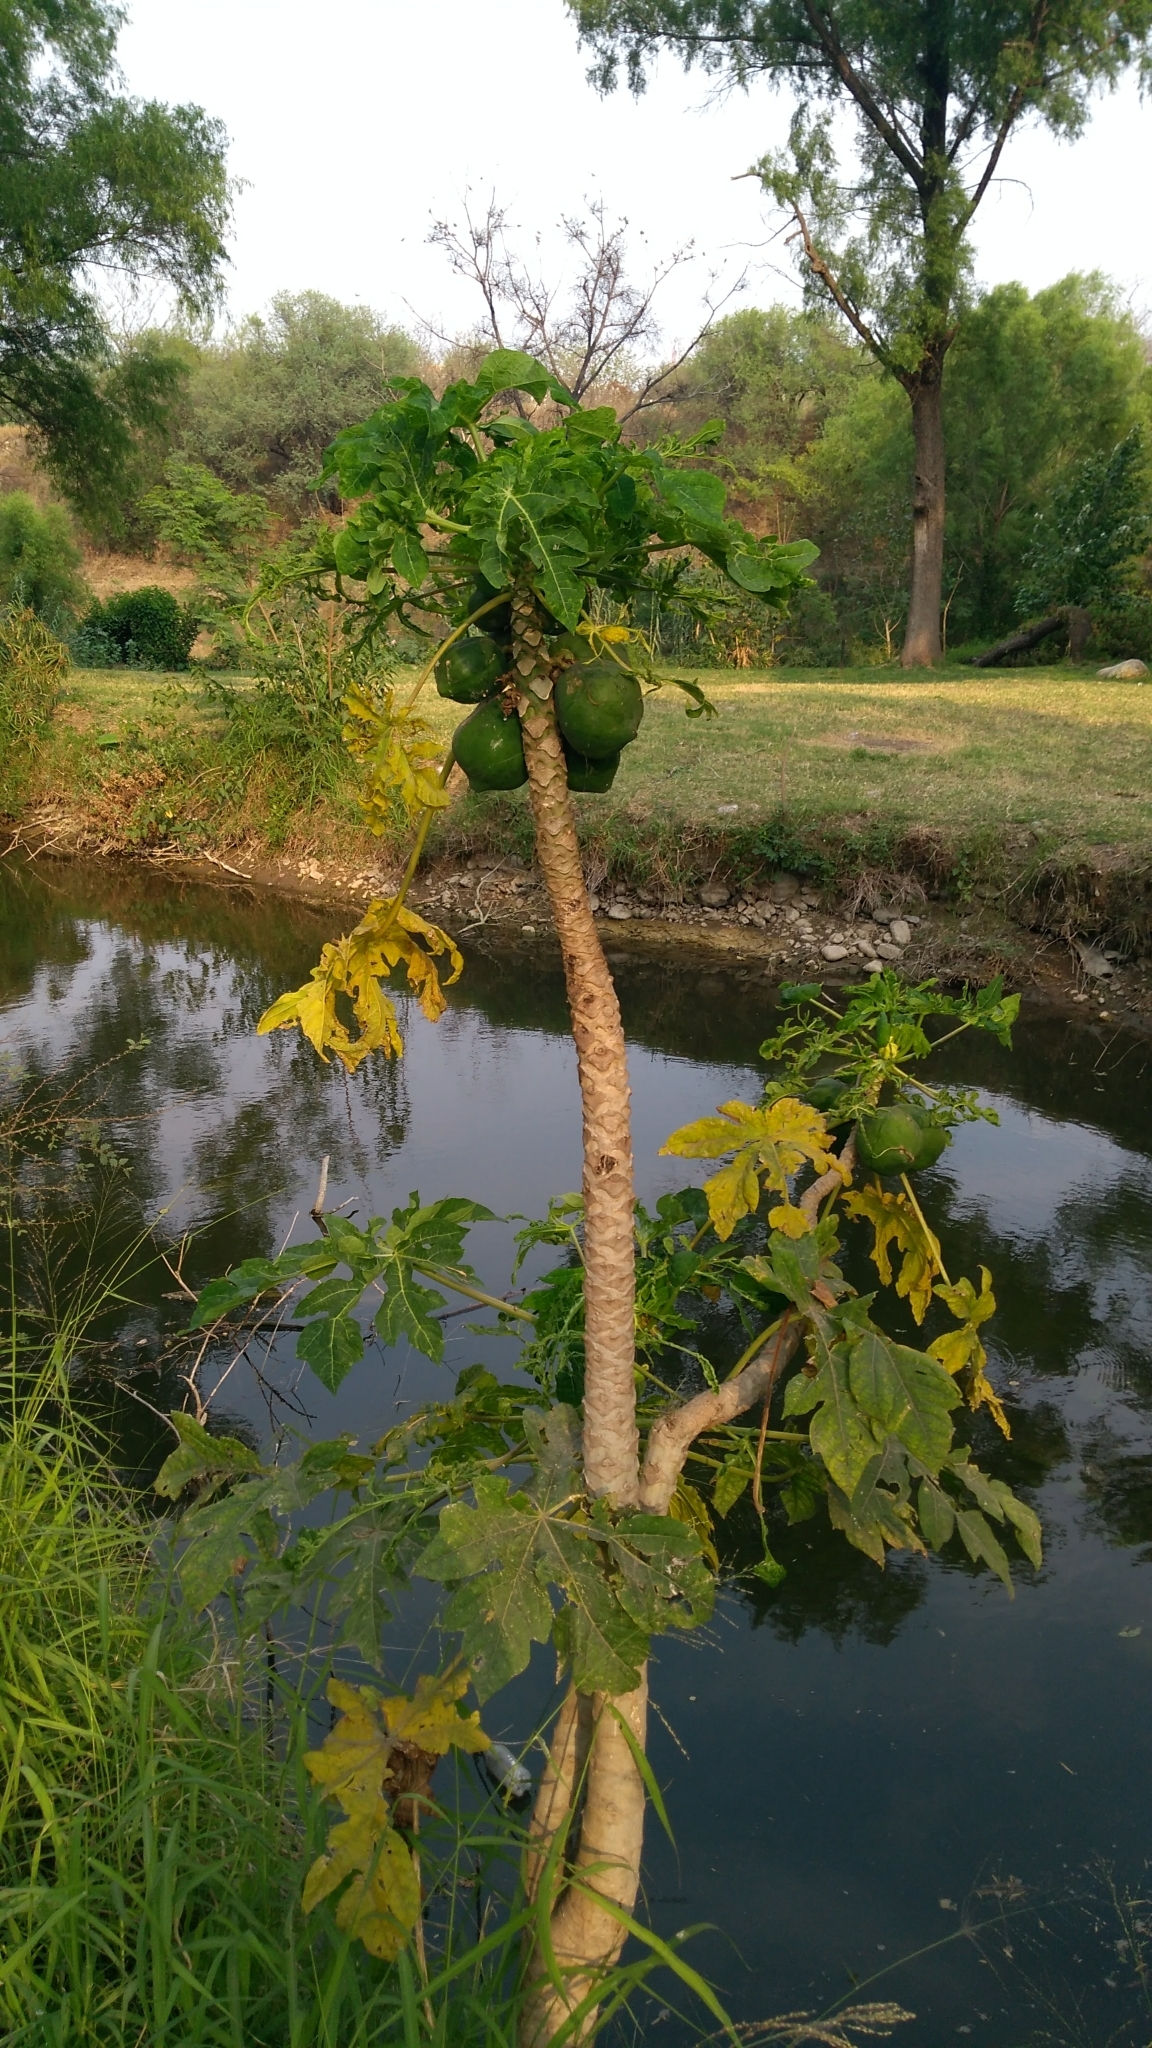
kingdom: Plantae
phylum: Tracheophyta
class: Magnoliopsida
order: Brassicales
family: Caricaceae
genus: Carica
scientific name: Carica papaya
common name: Papaya
